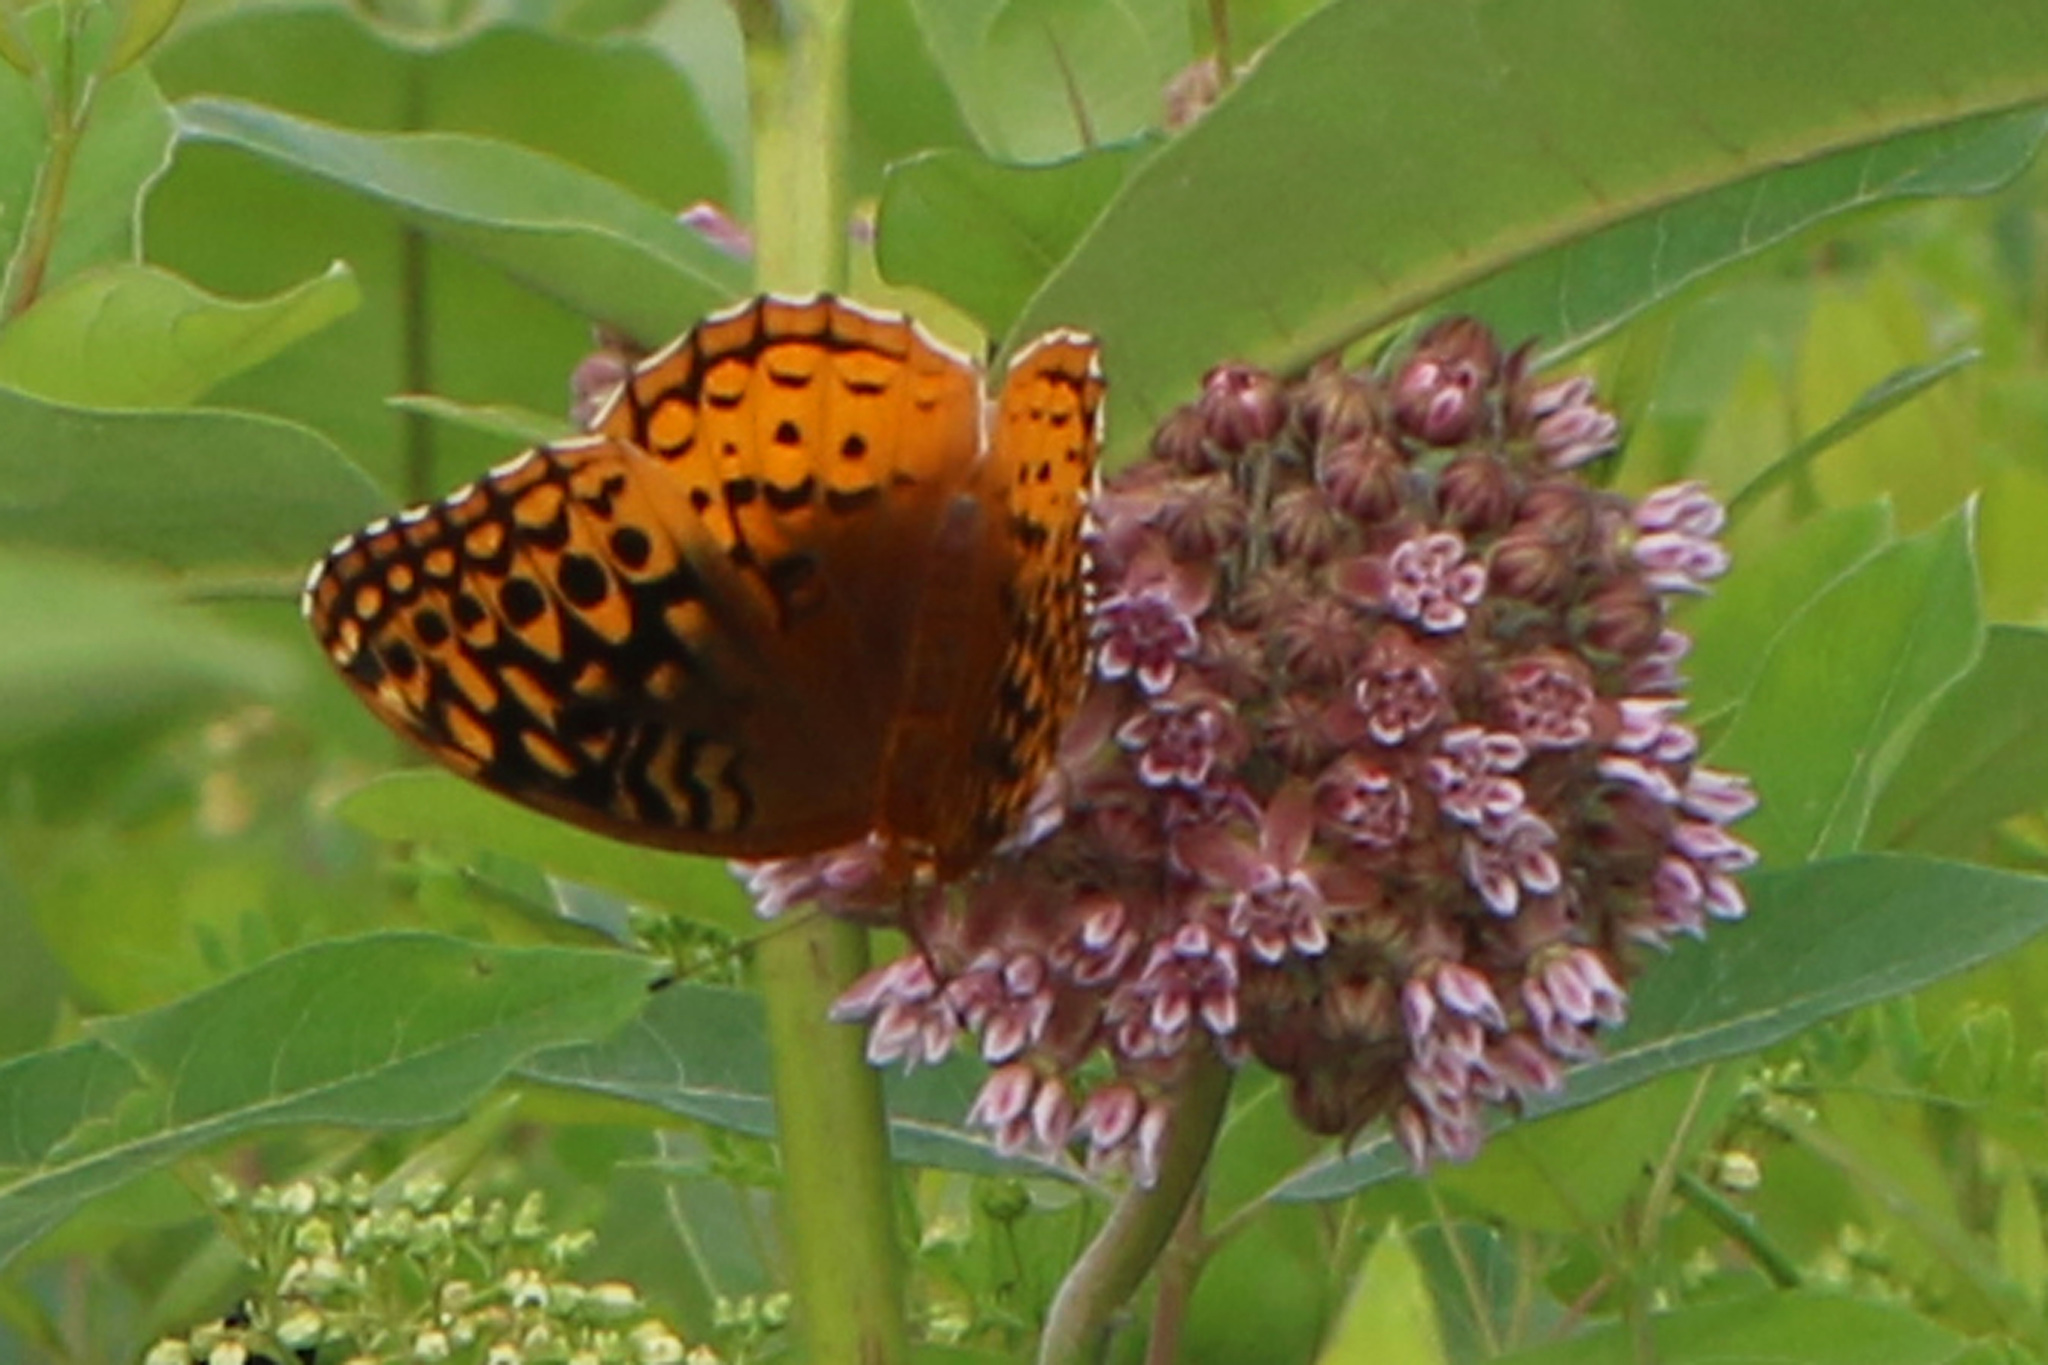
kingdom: Animalia
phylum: Arthropoda
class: Insecta
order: Lepidoptera
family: Nymphalidae
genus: Speyeria
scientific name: Speyeria cybele
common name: Great spangled fritillary
